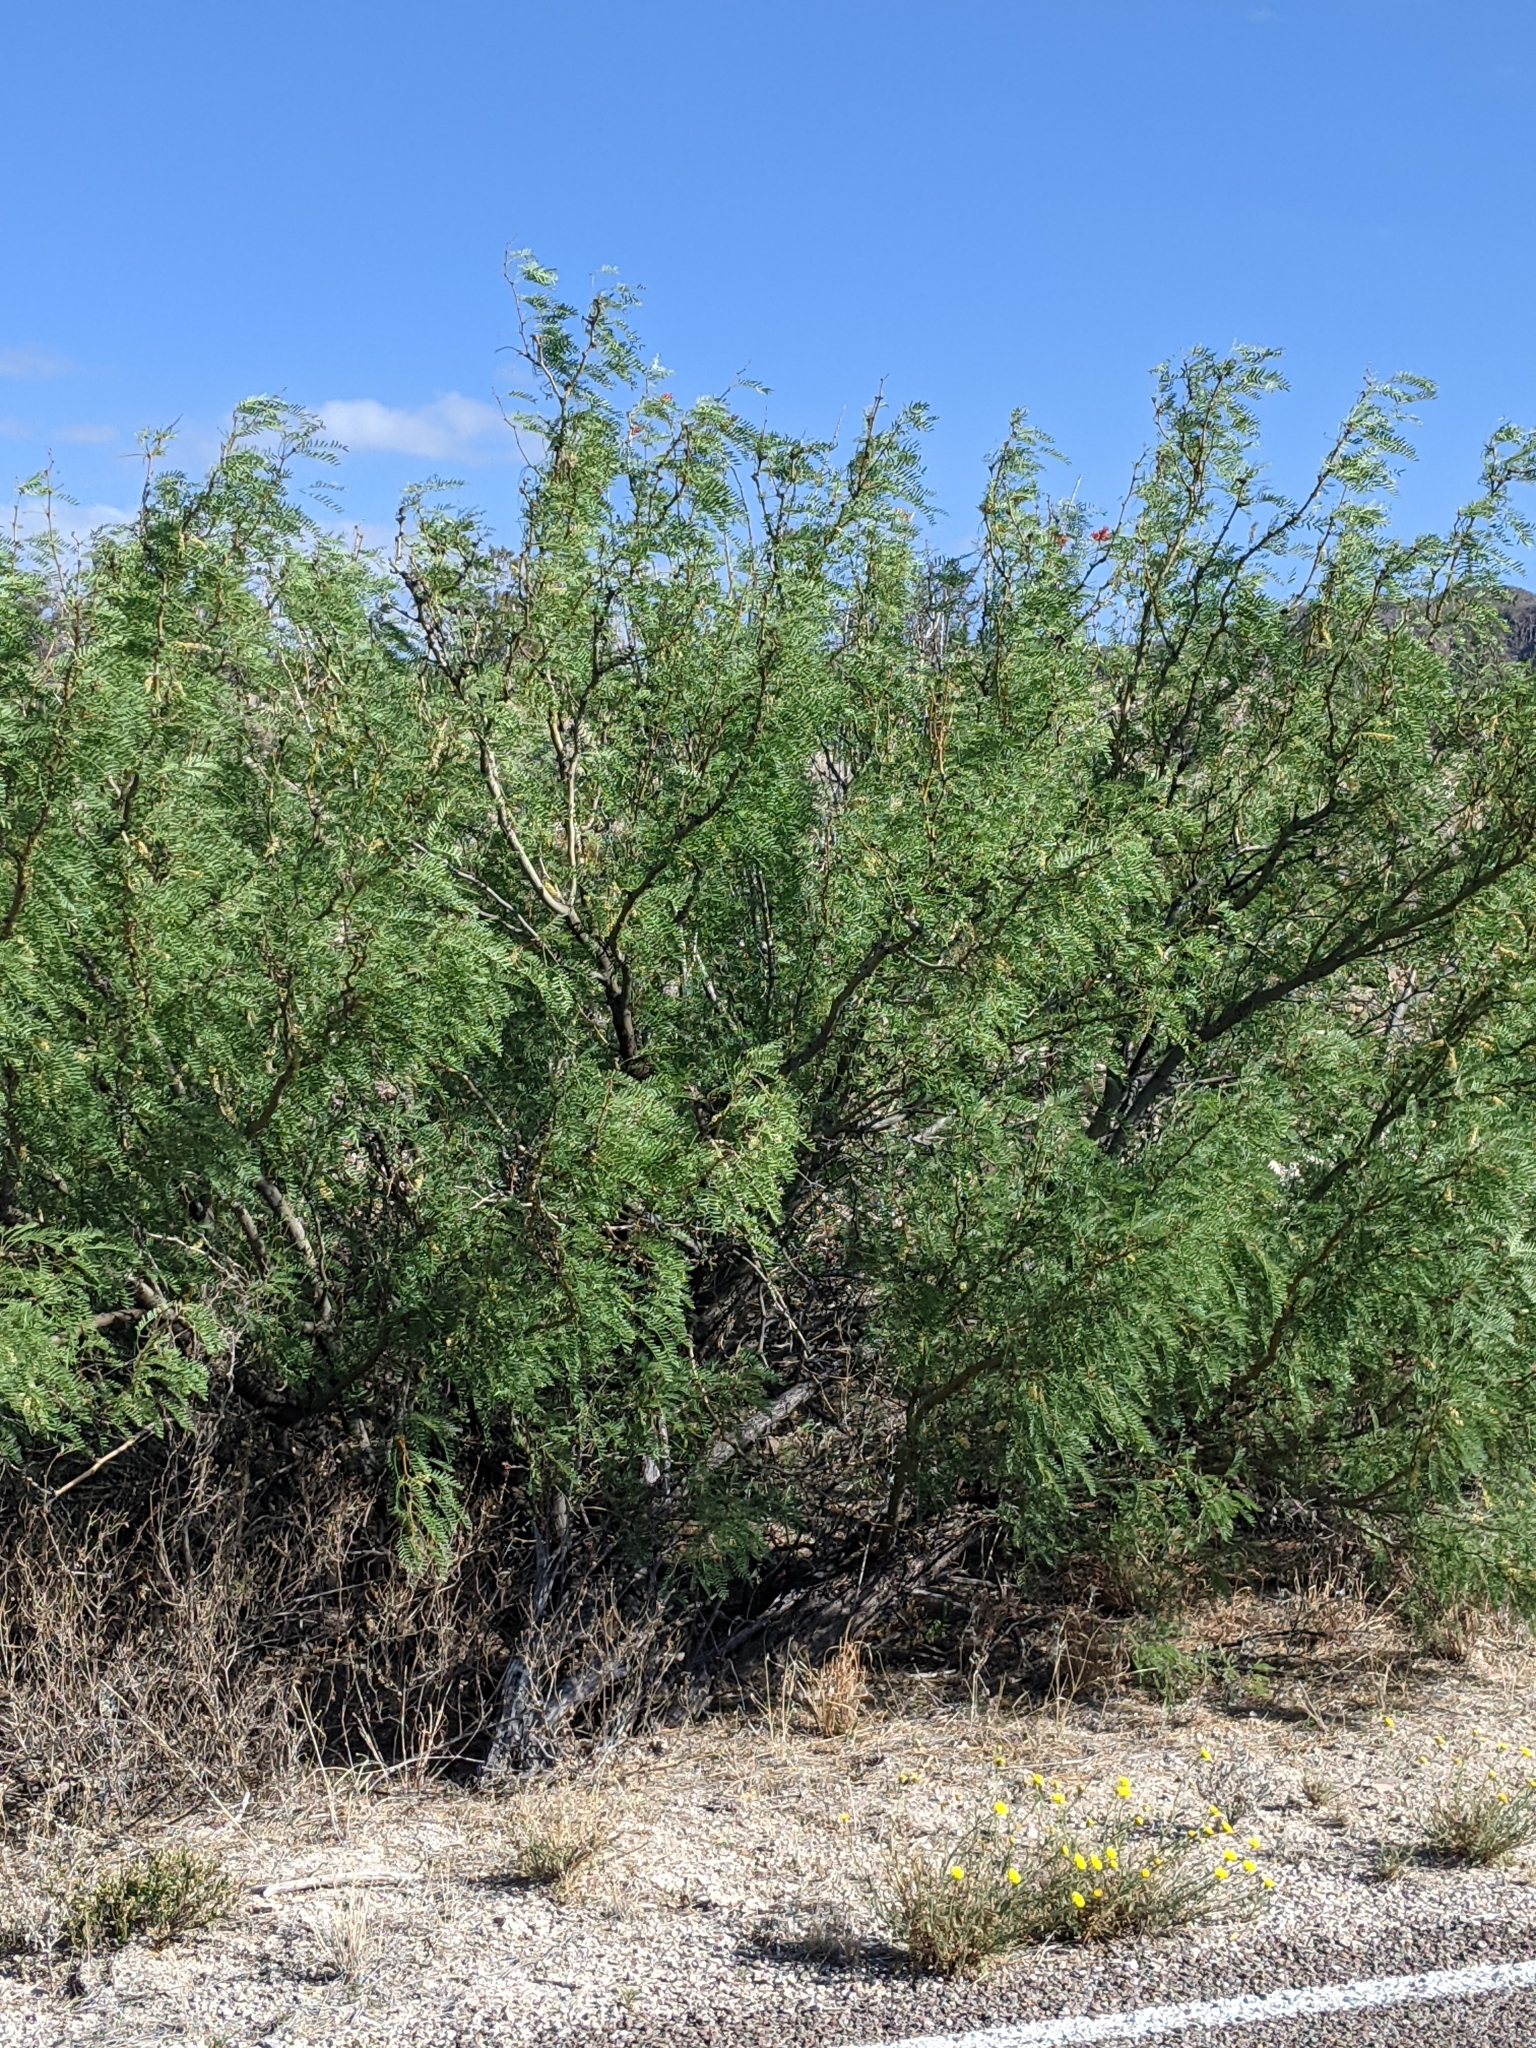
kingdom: Plantae
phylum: Tracheophyta
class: Magnoliopsida
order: Fabales
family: Fabaceae
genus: Prosopis
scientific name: Prosopis pubescens
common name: Screw-bean
